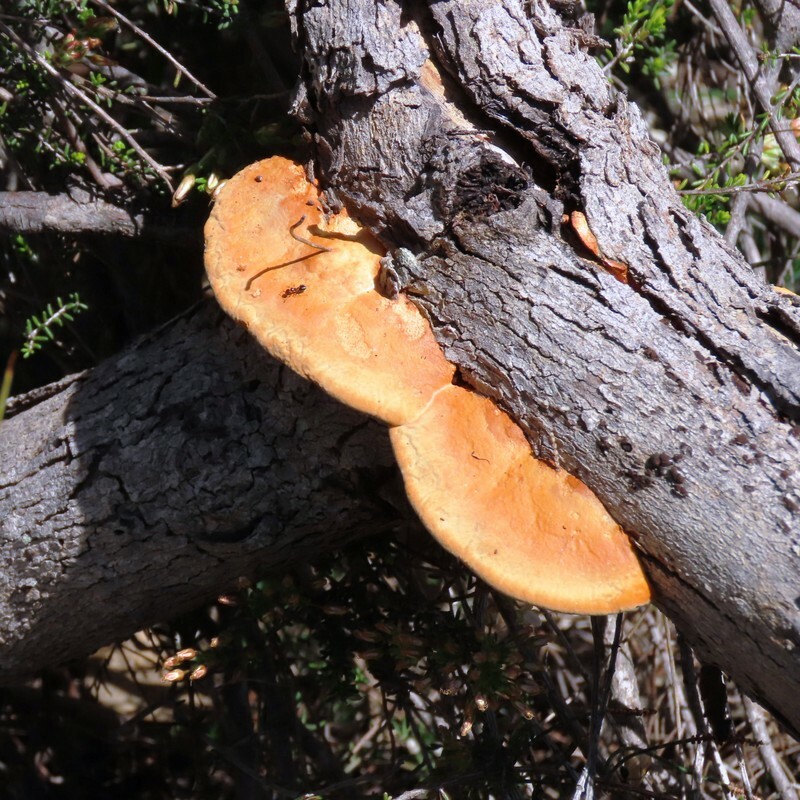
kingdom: Fungi
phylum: Basidiomycota
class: Agaricomycetes
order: Polyporales
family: Polyporaceae
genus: Trametes
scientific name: Trametes coccinea
